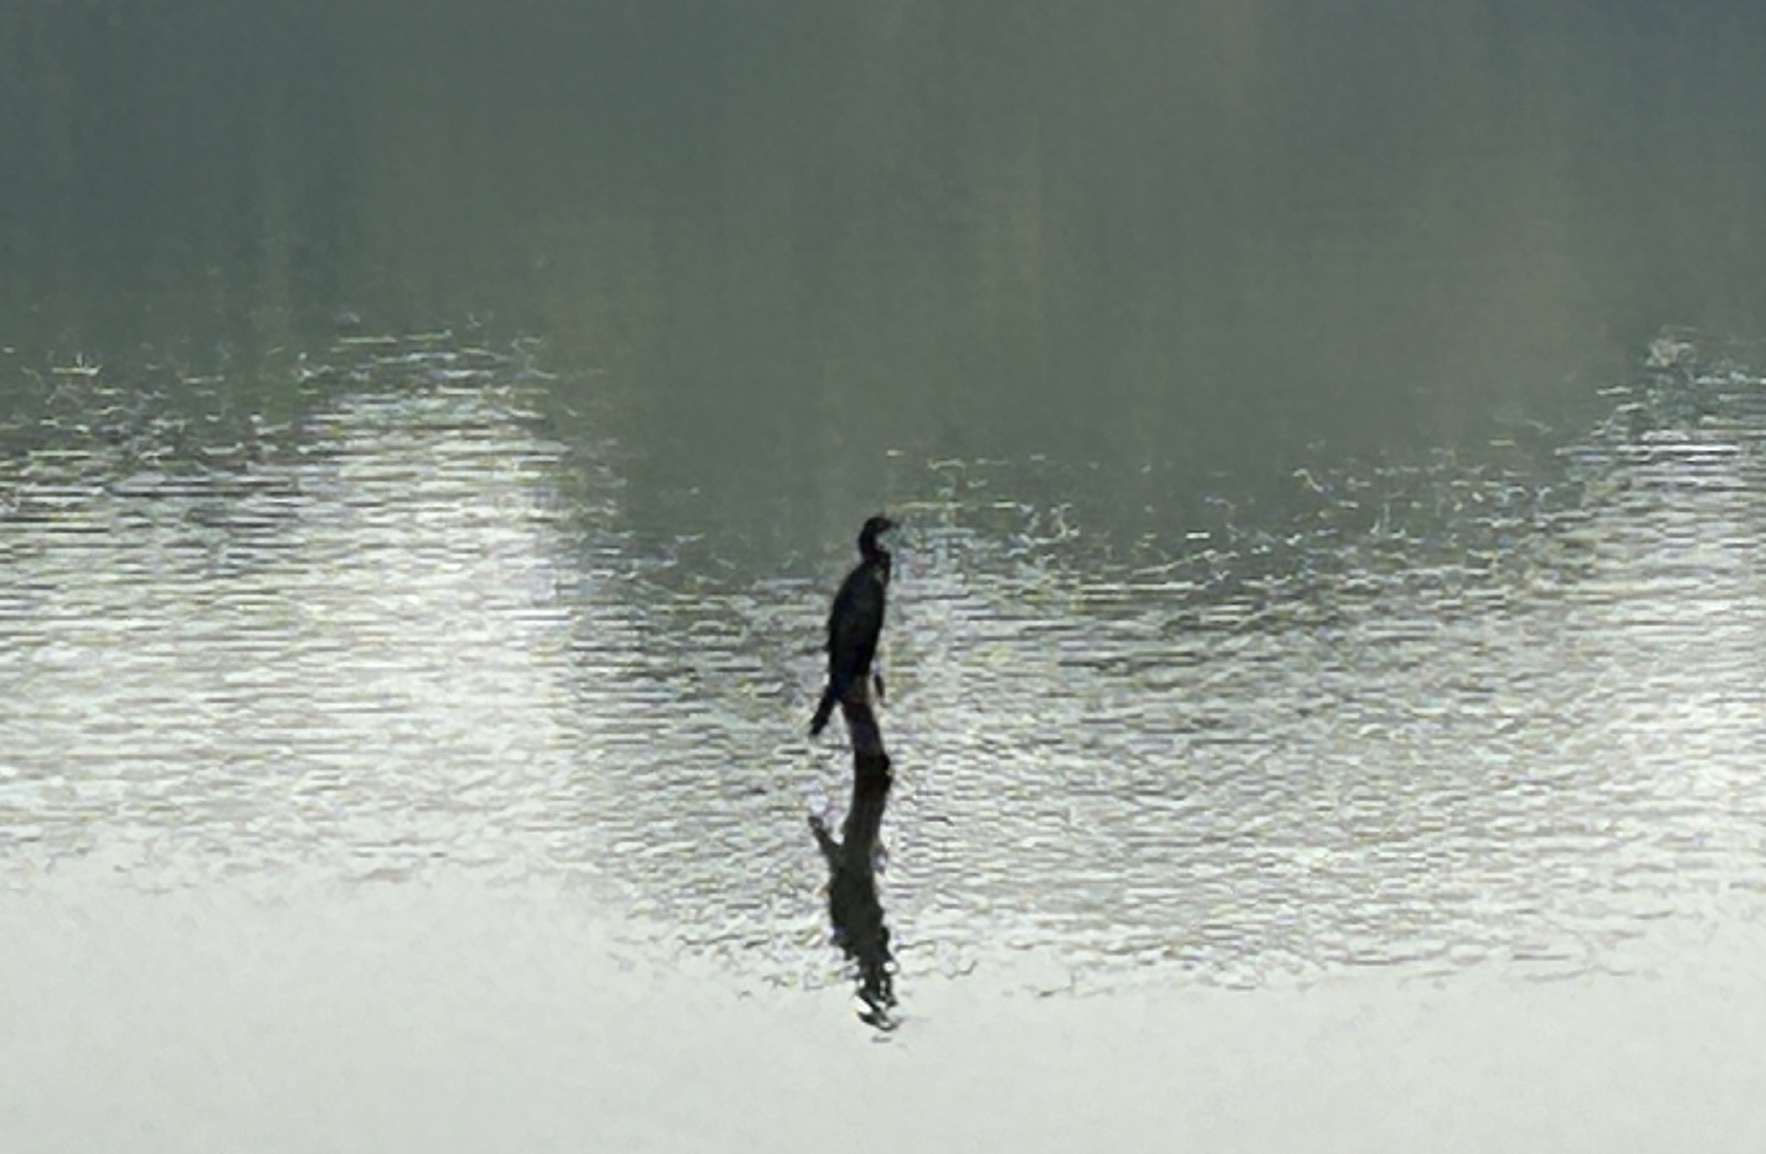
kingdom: Animalia
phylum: Chordata
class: Aves
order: Suliformes
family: Phalacrocoracidae
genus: Microcarbo
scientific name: Microcarbo niger
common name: Little cormorant
